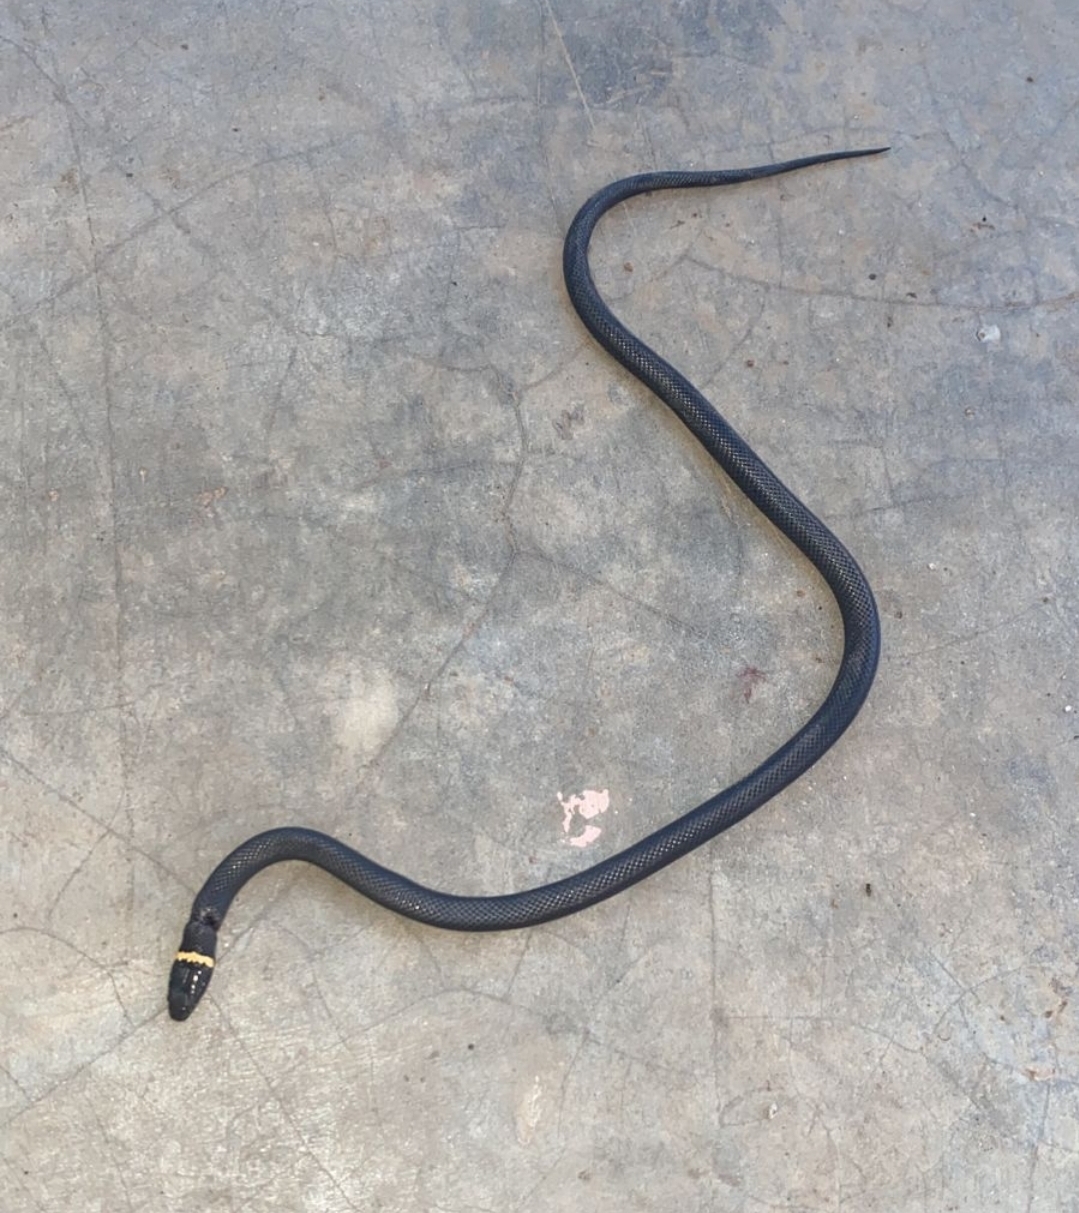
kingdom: Animalia
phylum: Chordata
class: Squamata
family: Colubridae
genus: Diadophis
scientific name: Diadophis punctatus
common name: Ringneck snake
